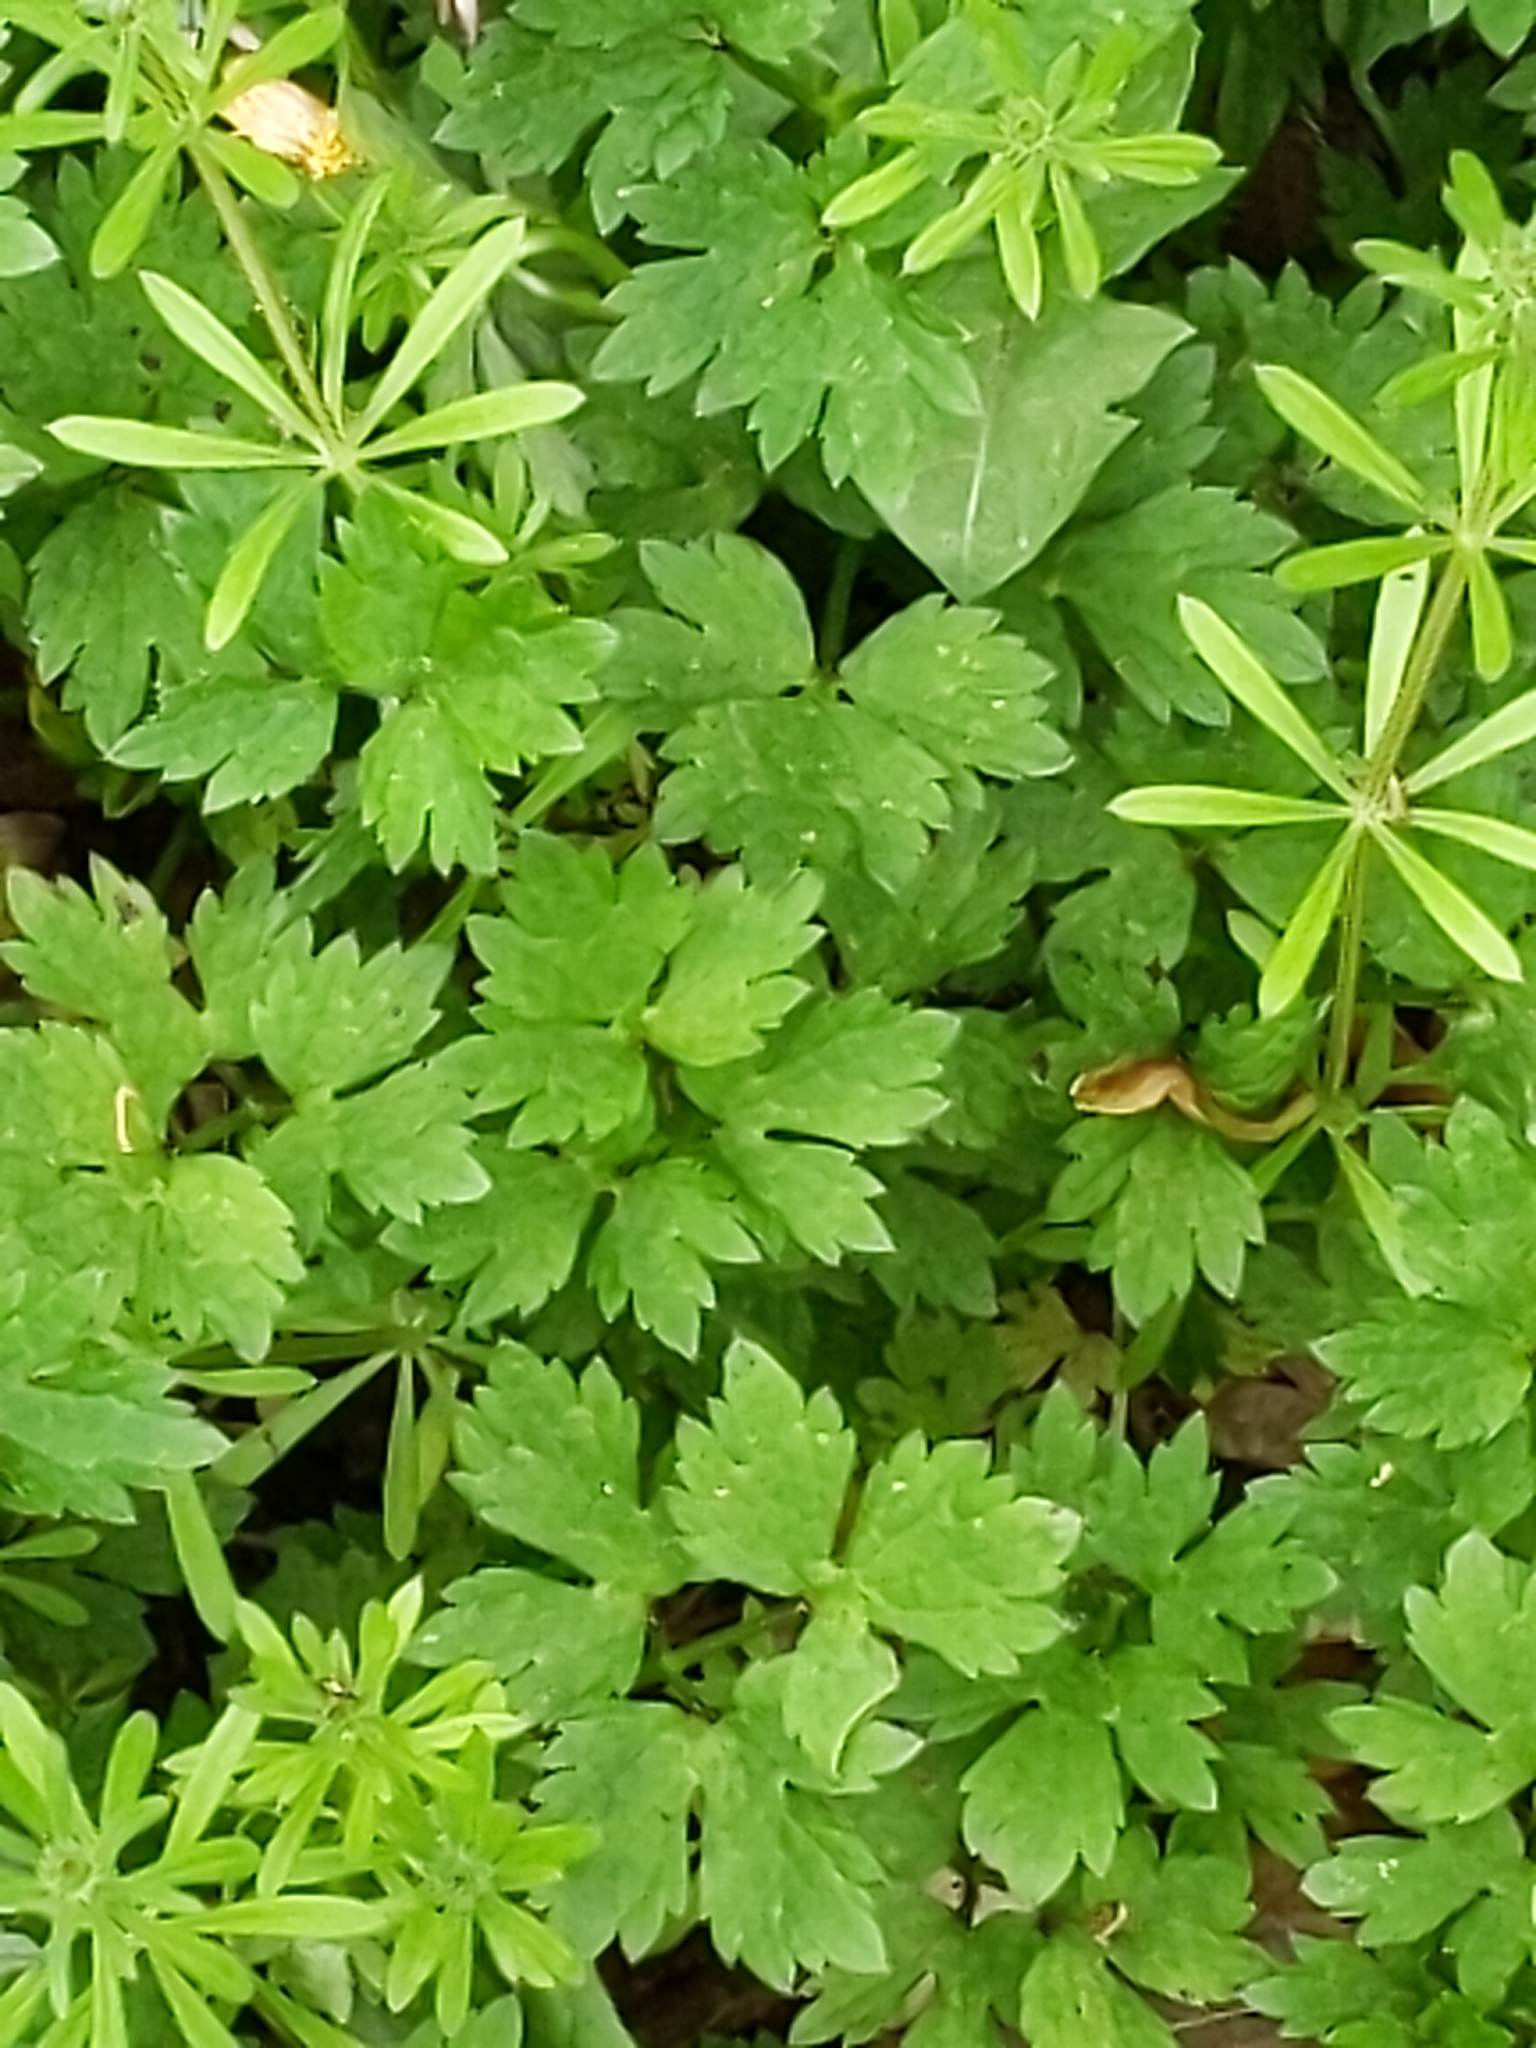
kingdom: Plantae
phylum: Tracheophyta
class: Magnoliopsida
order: Ranunculales
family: Ranunculaceae
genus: Ranunculus
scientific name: Ranunculus repens
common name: Creeping buttercup
